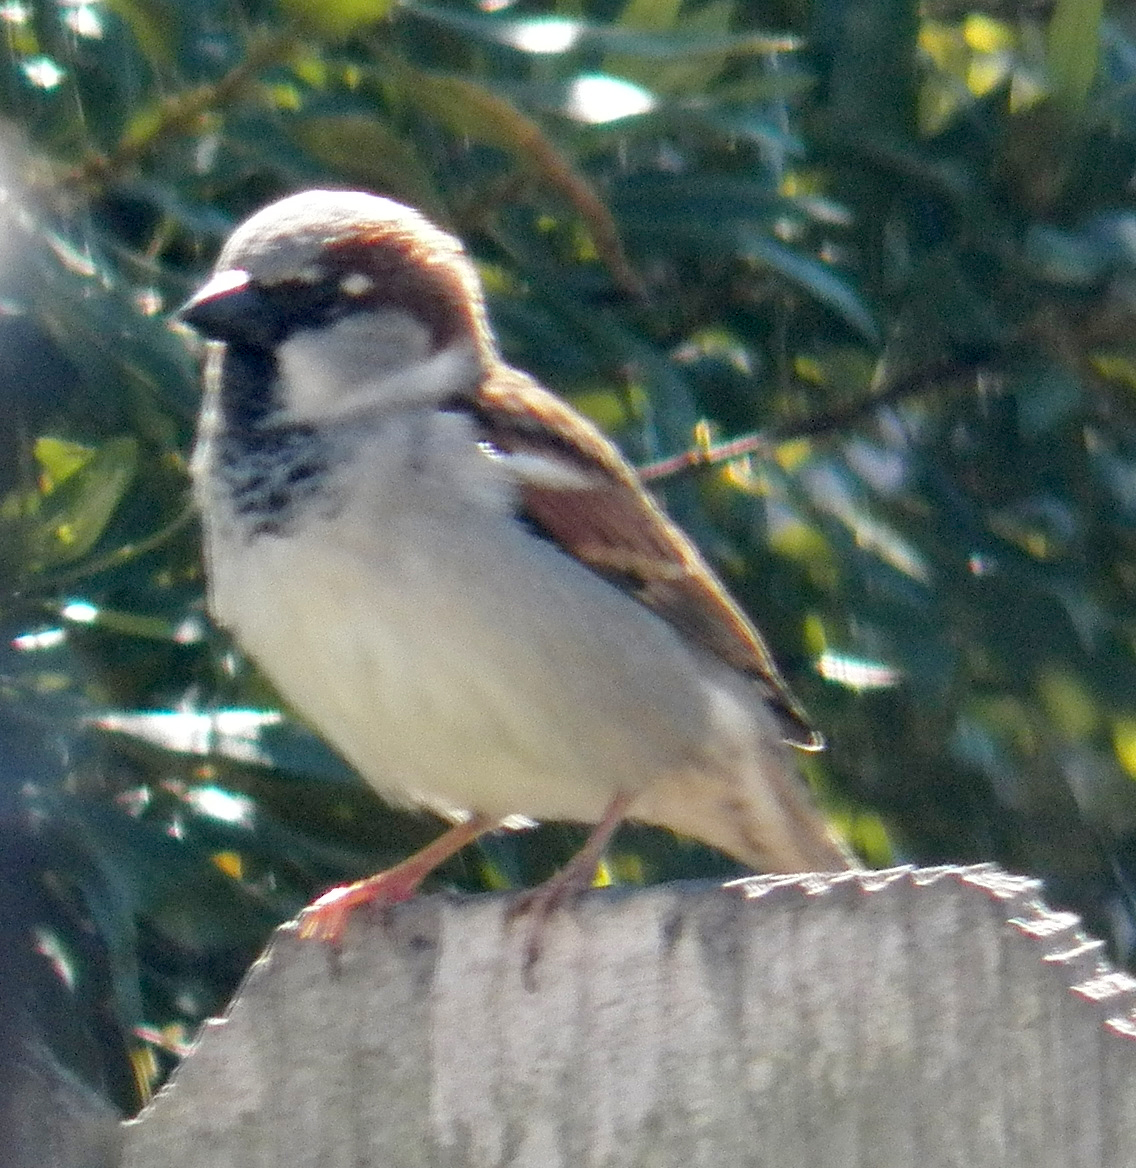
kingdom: Animalia
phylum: Chordata
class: Aves
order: Passeriformes
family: Passeridae
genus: Passer
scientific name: Passer domesticus
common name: House sparrow
